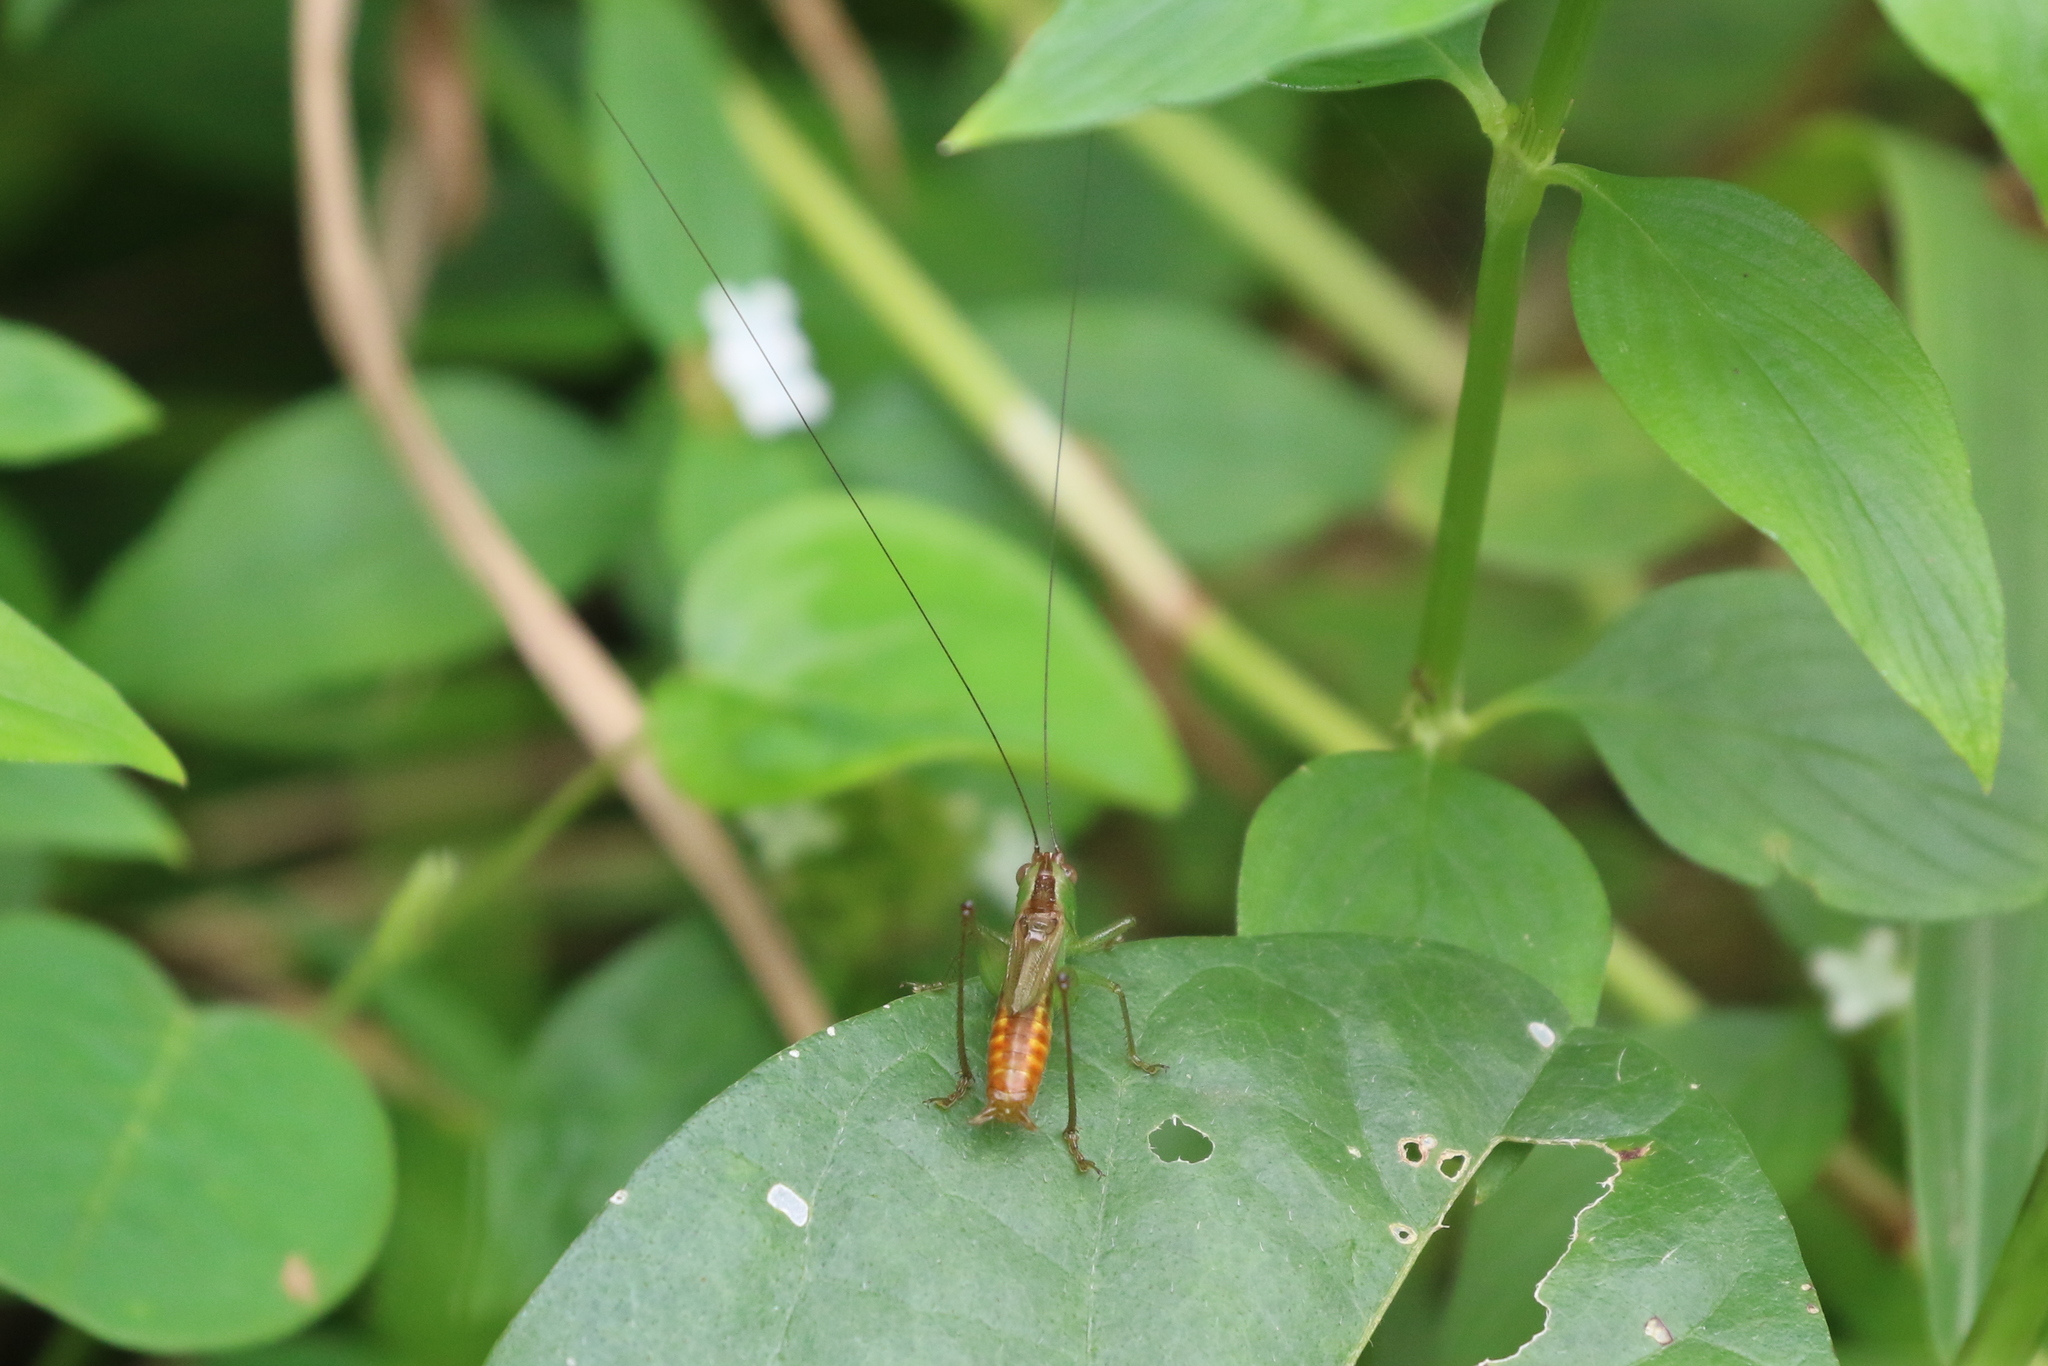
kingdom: Animalia
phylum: Arthropoda
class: Insecta
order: Orthoptera
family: Tettigoniidae
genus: Conocephalus
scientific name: Conocephalus saltator
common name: Katydid
